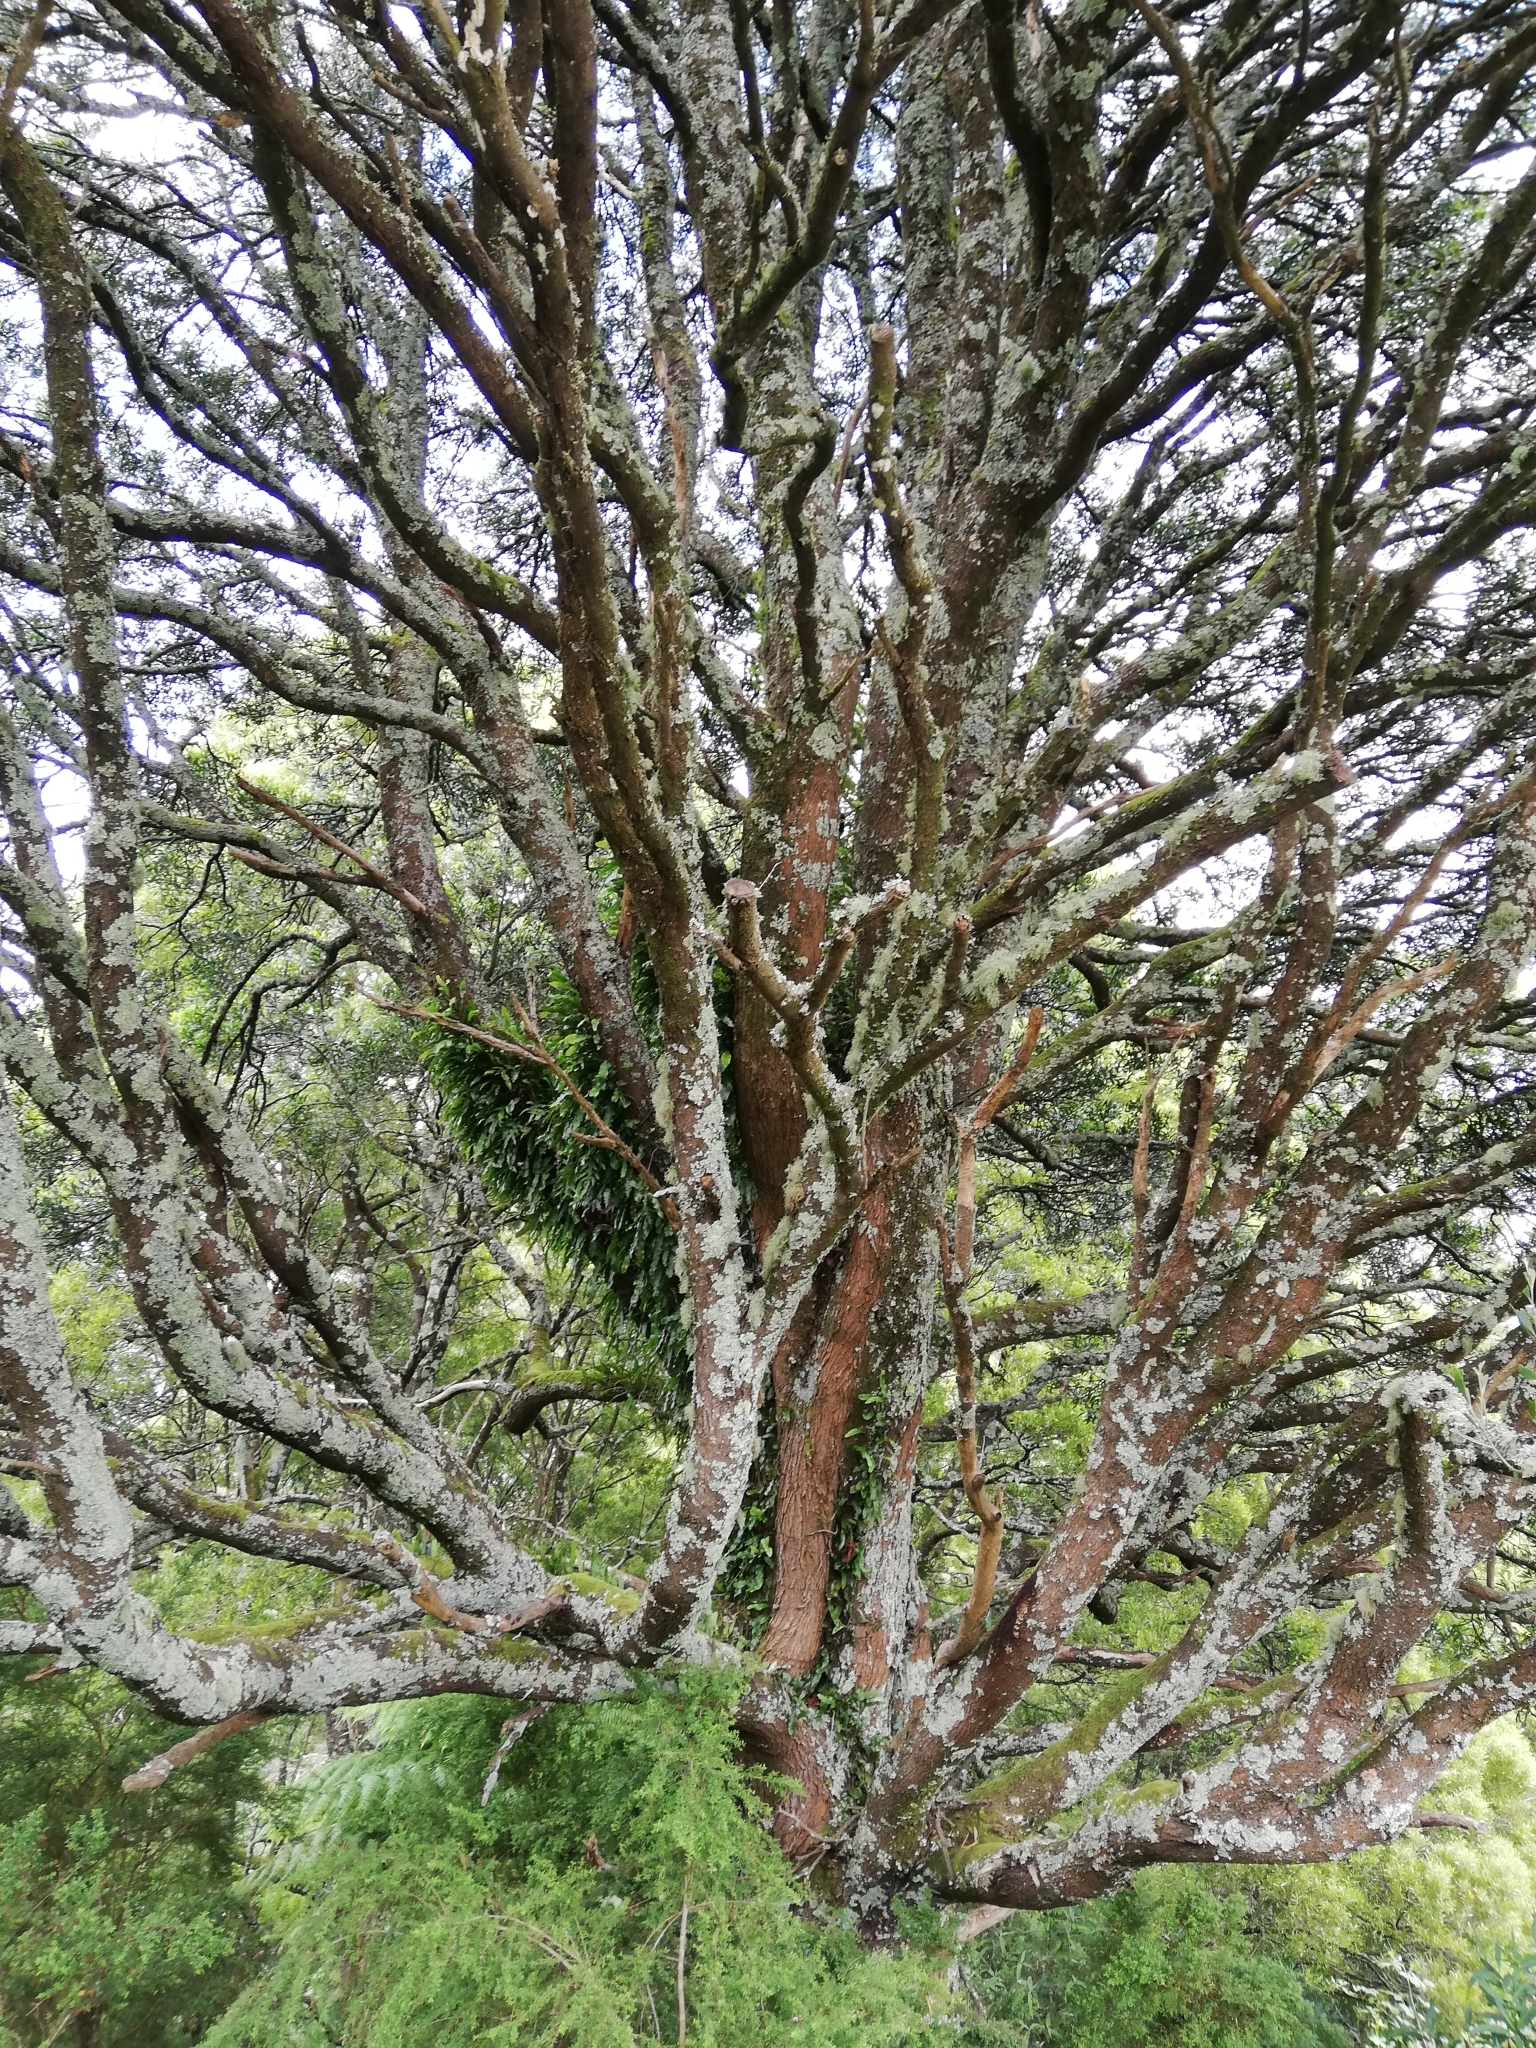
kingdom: Plantae
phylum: Tracheophyta
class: Magnoliopsida
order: Fabales
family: Fabaceae
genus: Acacia
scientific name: Acacia melanoxylon
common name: Blackwood
